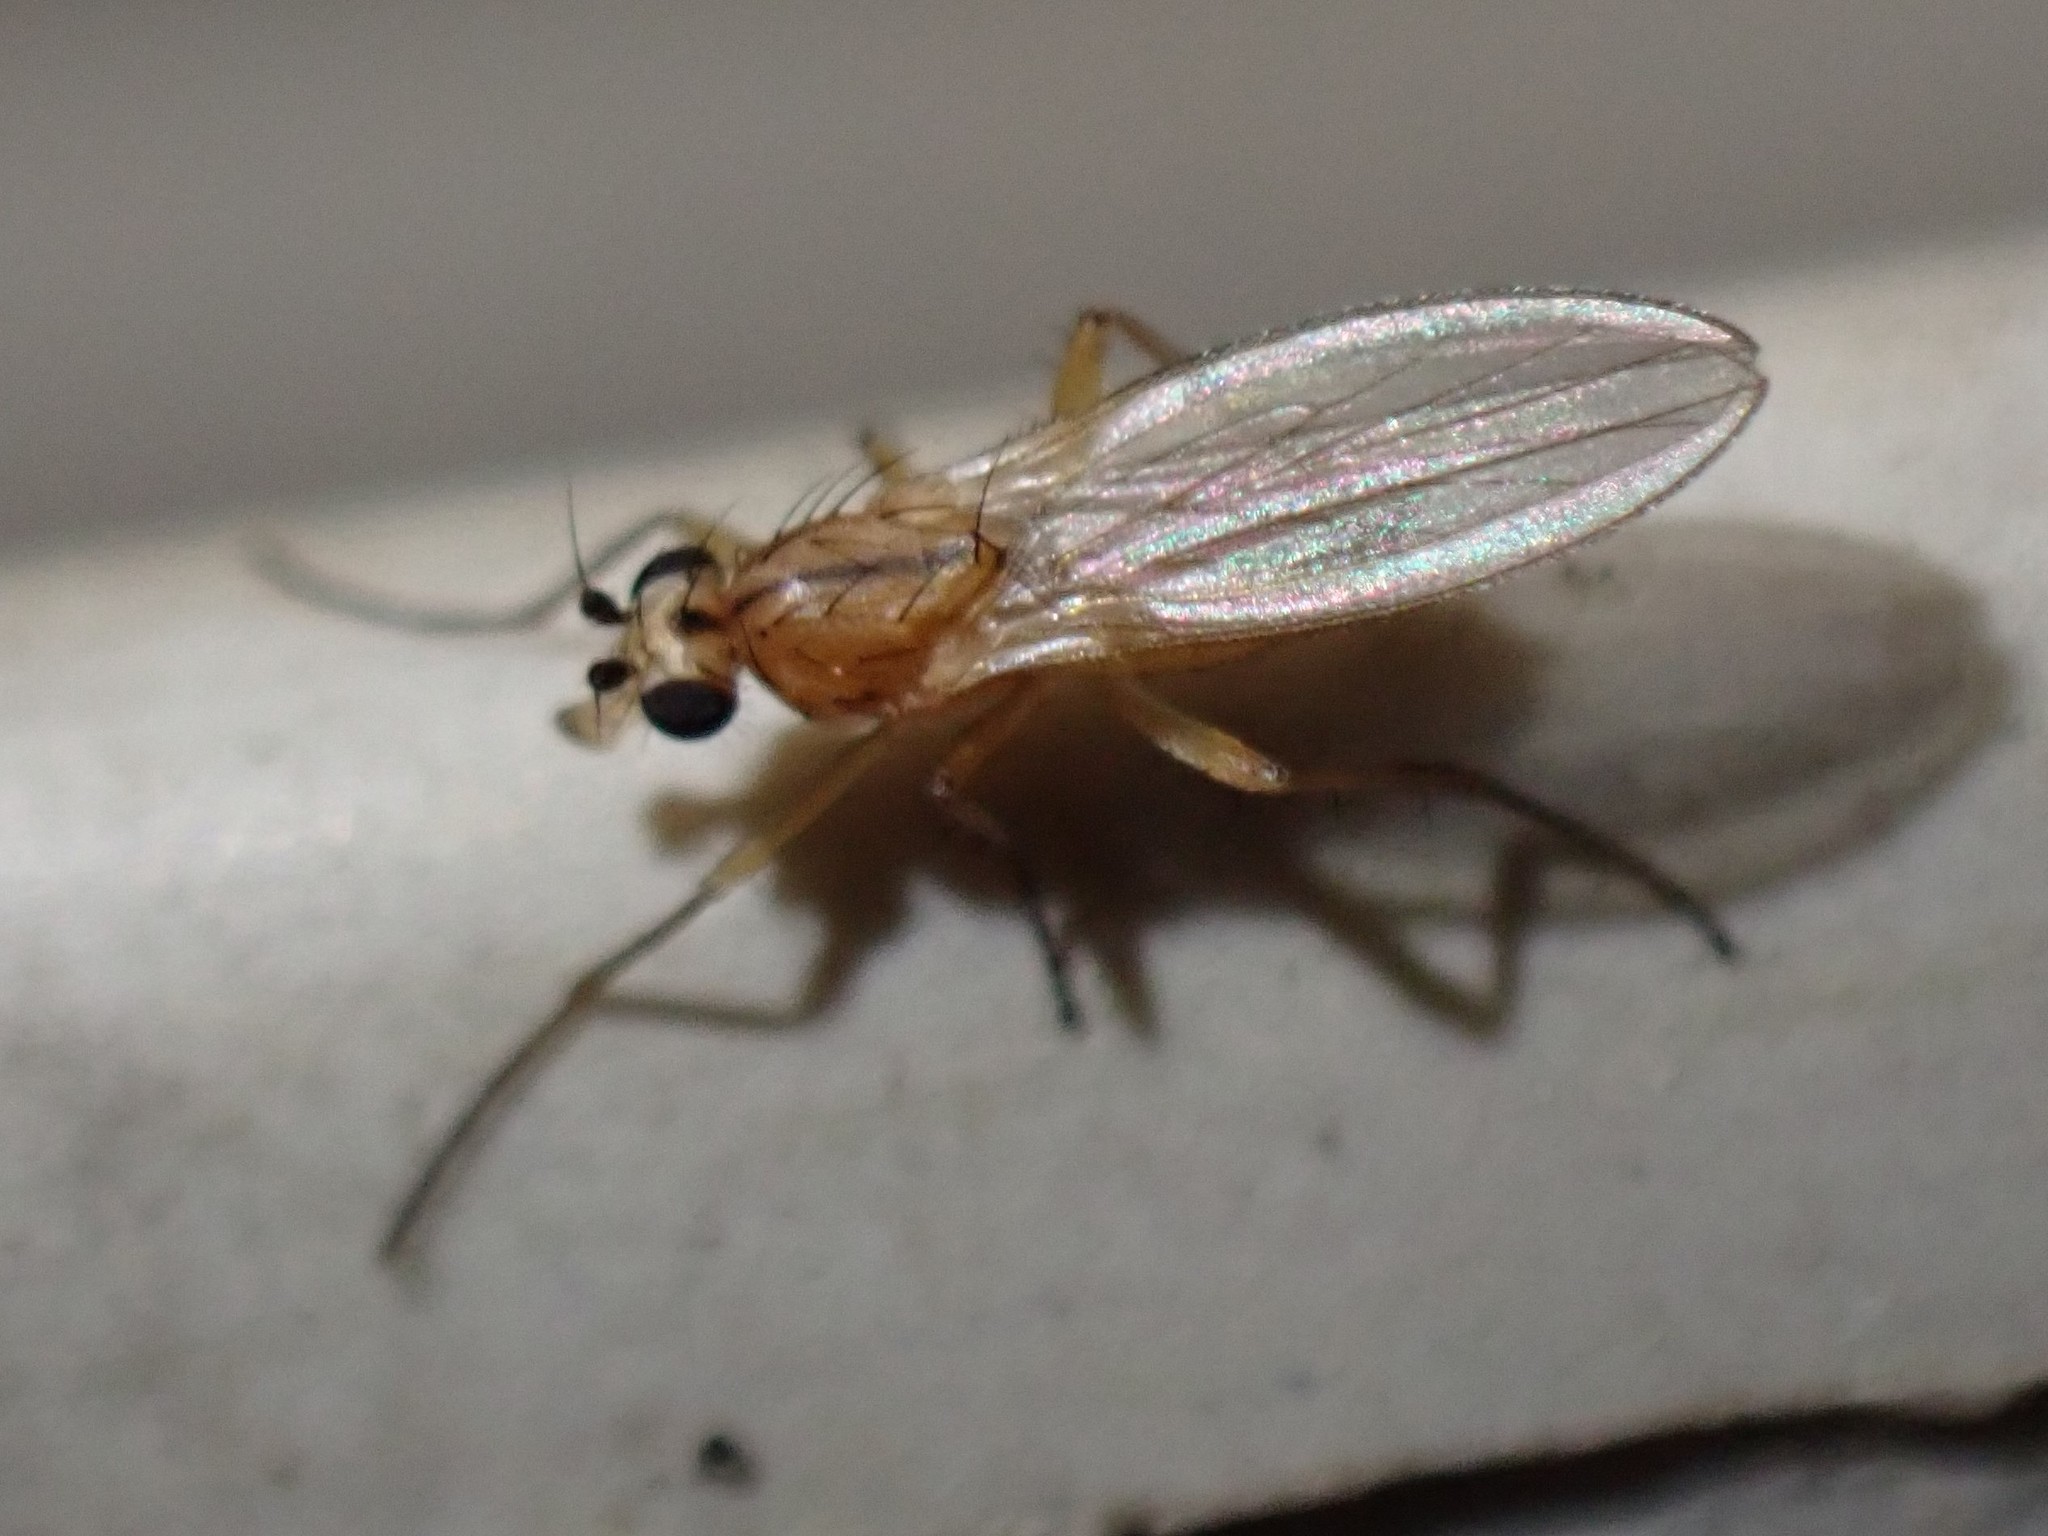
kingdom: Animalia
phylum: Arthropoda
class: Insecta
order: Diptera
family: Lonchopteridae
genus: Lonchoptera
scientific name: Lonchoptera bifurcata
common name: Spear-winged fly
